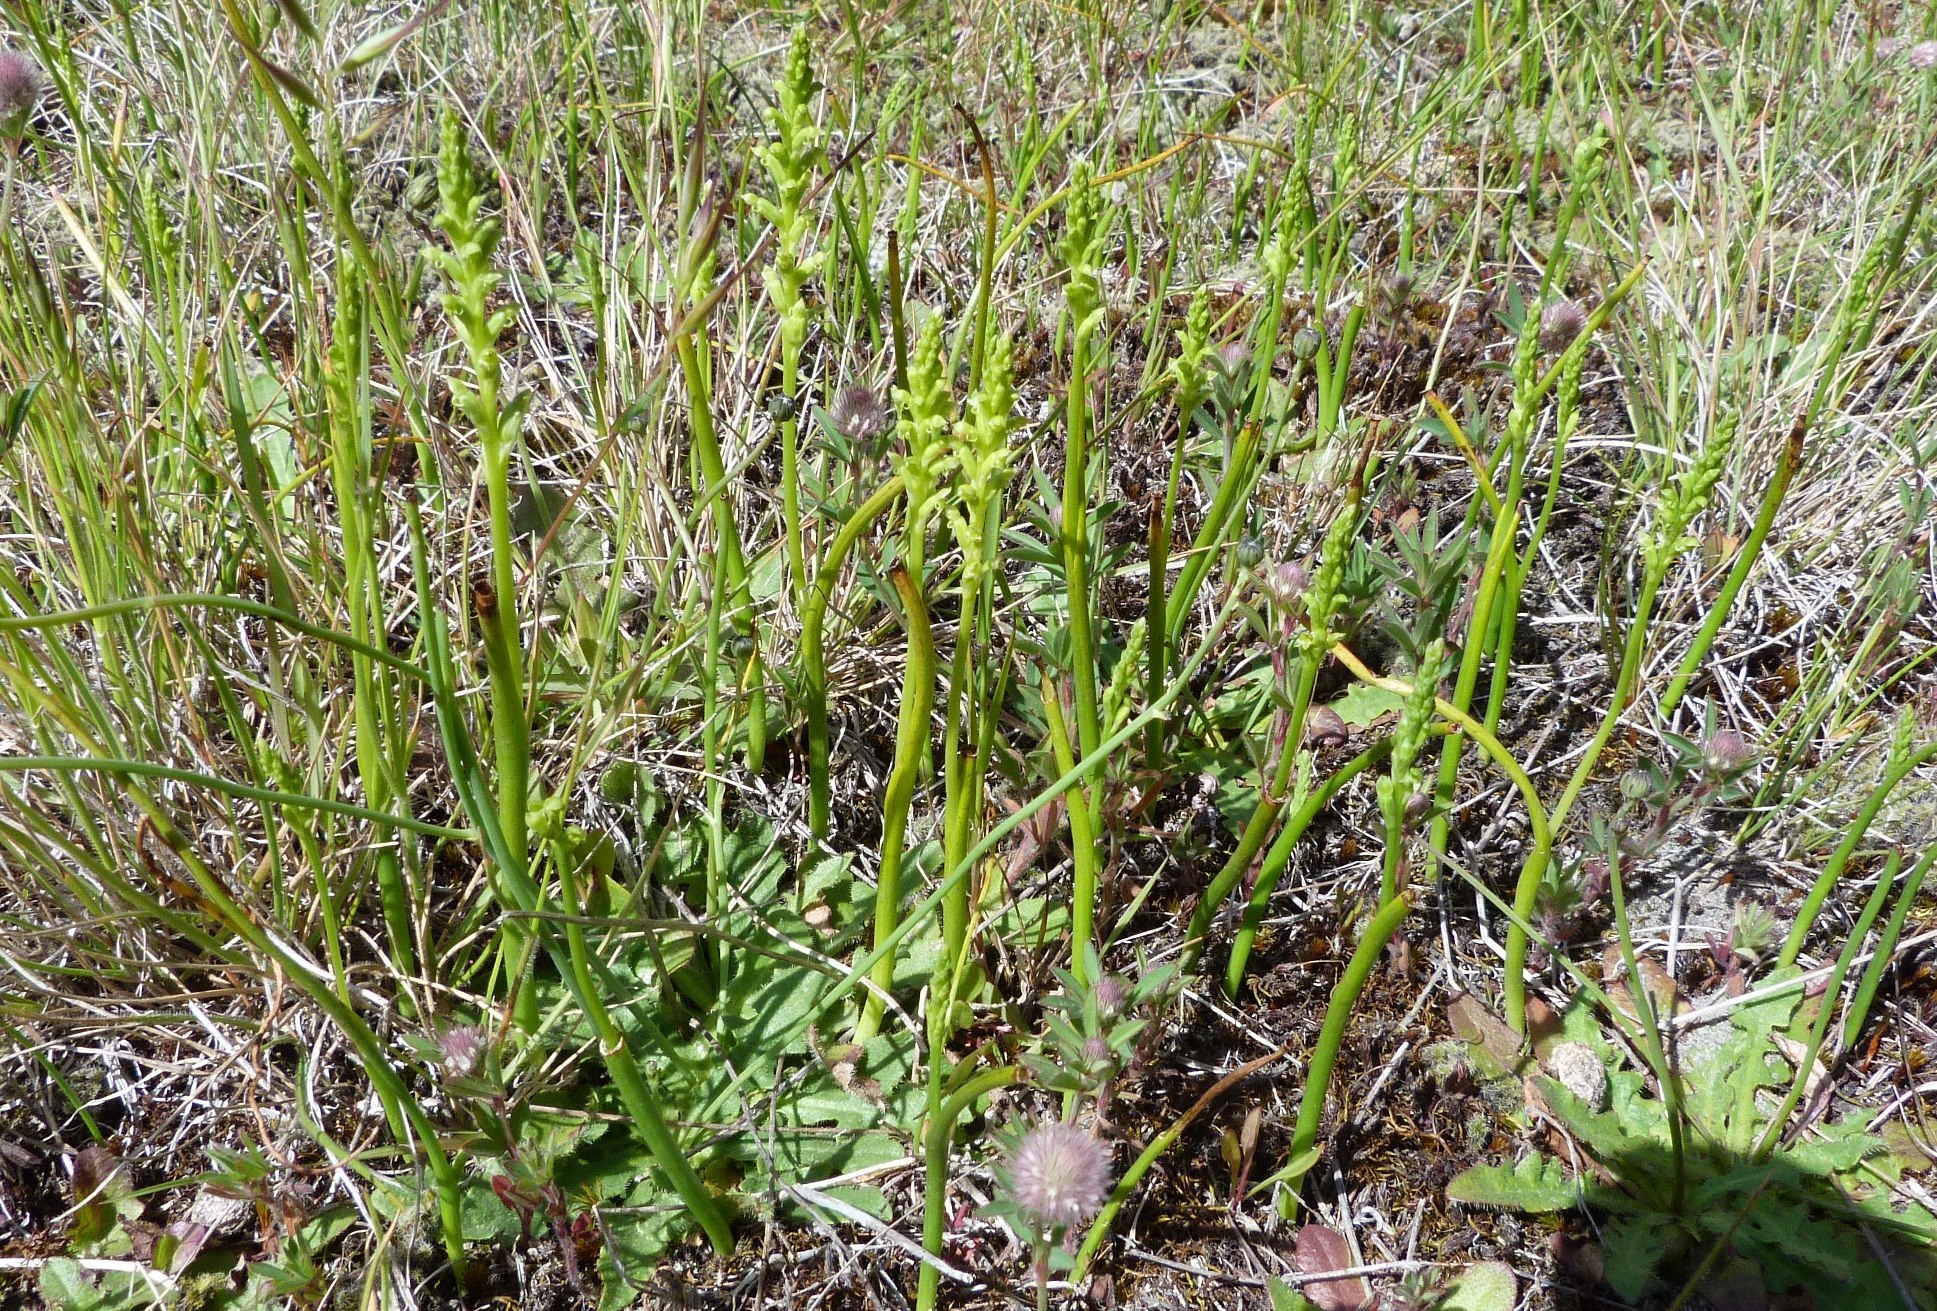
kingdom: Plantae
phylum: Tracheophyta
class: Liliopsida
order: Asparagales
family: Orchidaceae
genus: Microtis
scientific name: Microtis unifolia
